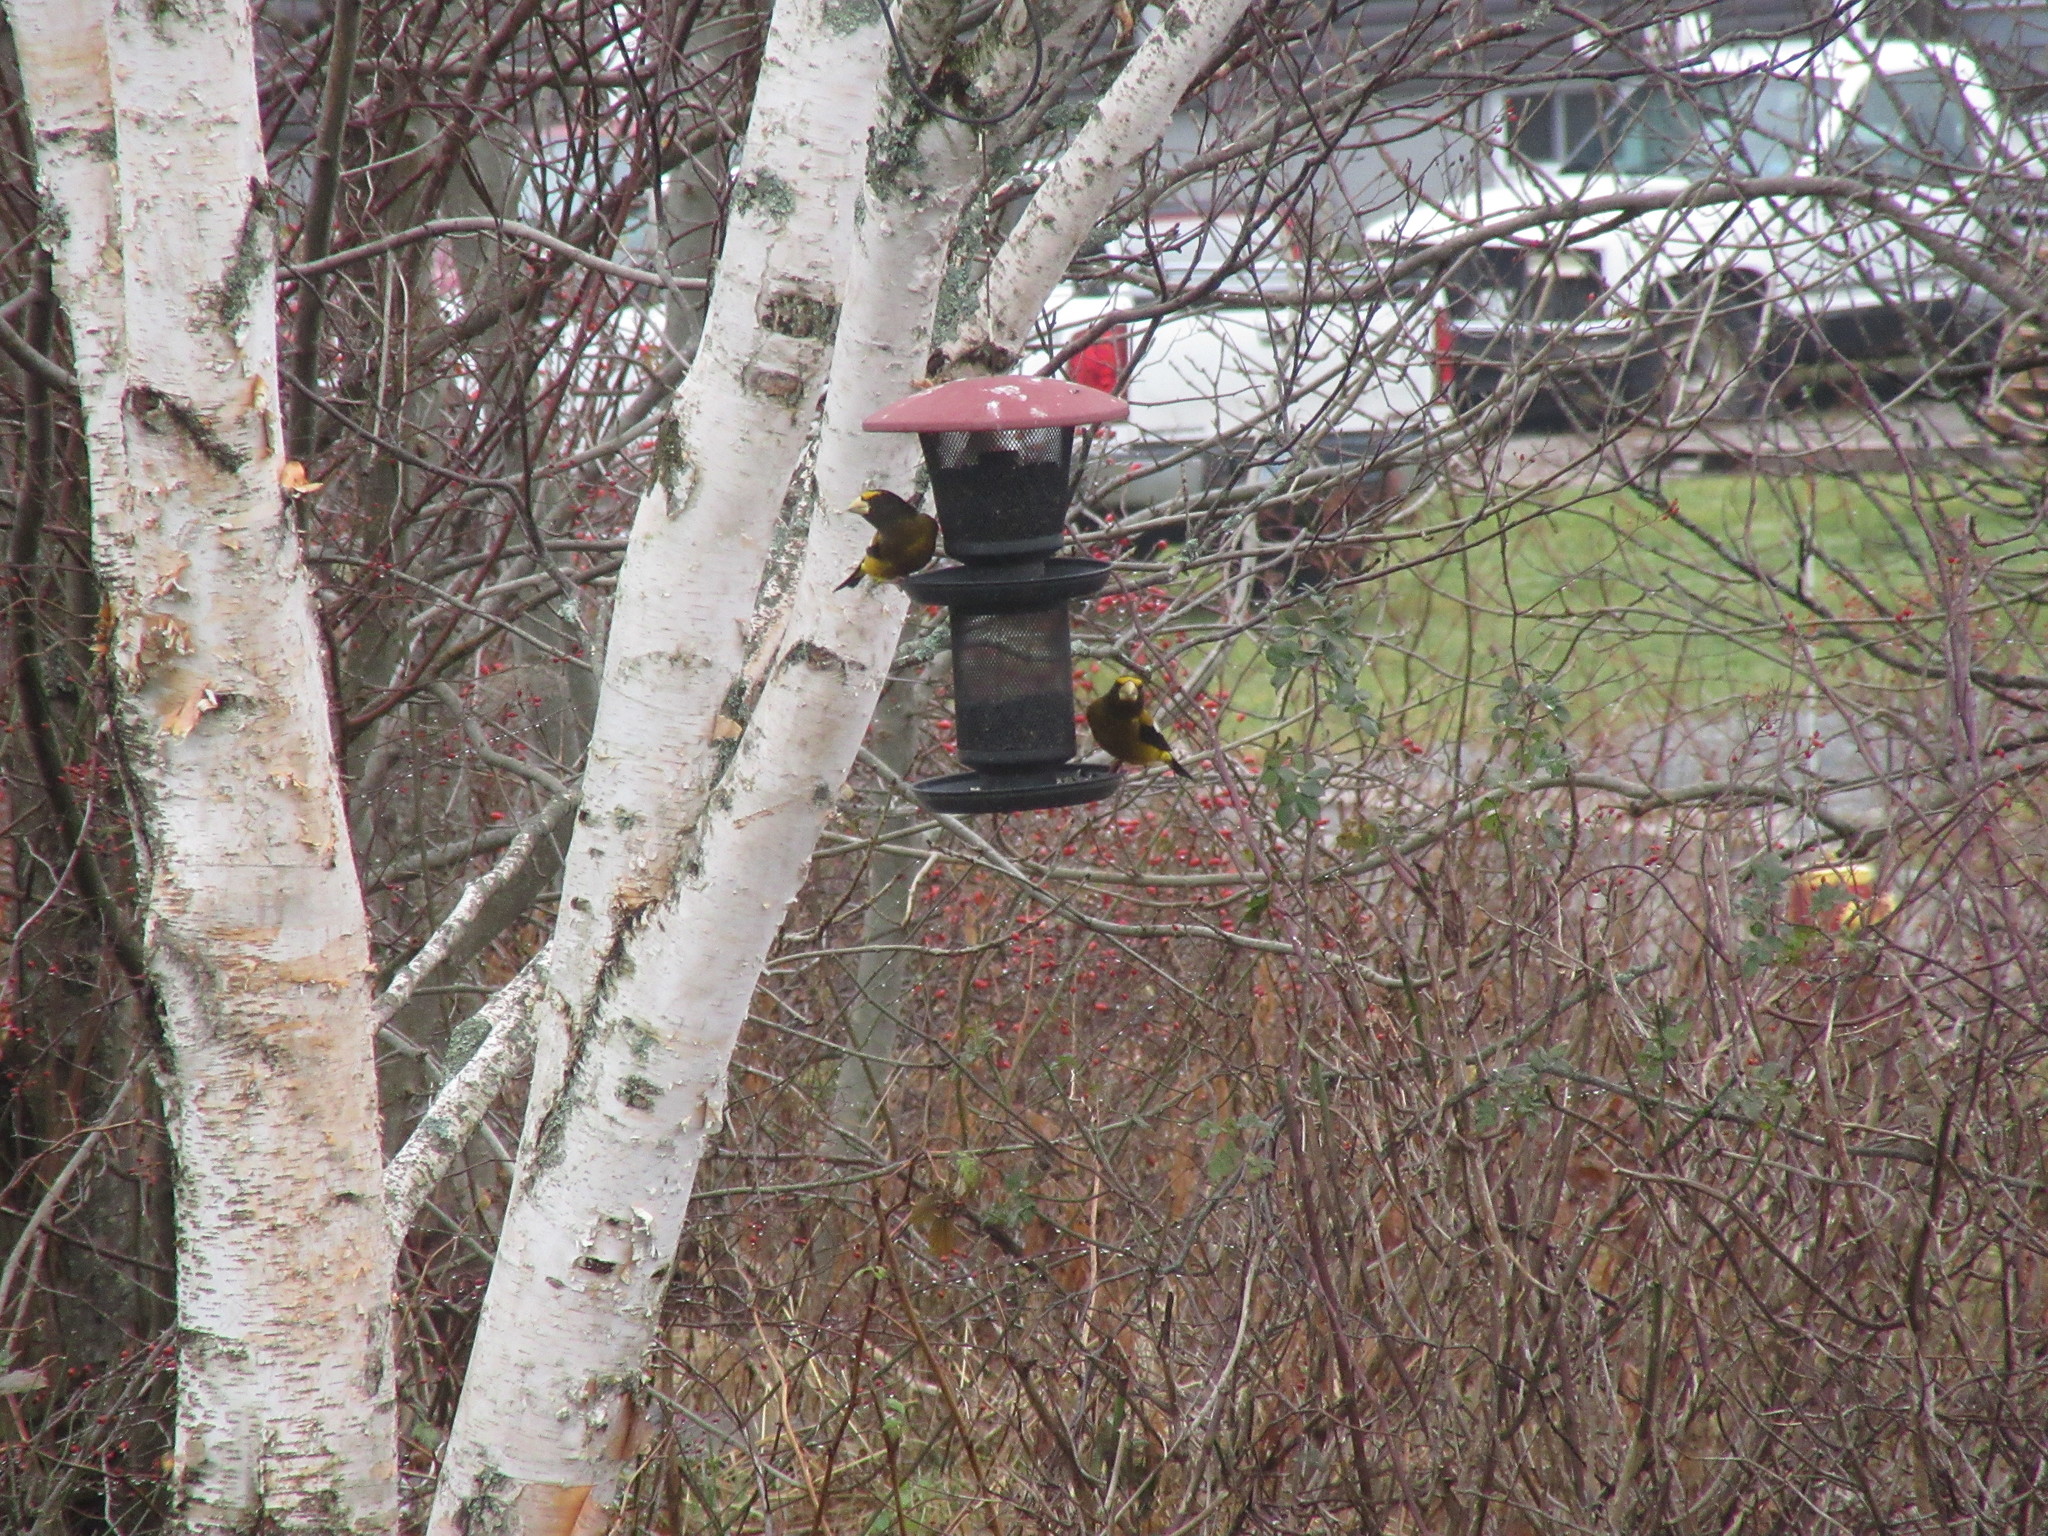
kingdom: Animalia
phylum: Chordata
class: Aves
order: Passeriformes
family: Fringillidae
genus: Hesperiphona
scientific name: Hesperiphona vespertina
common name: Evening grosbeak
